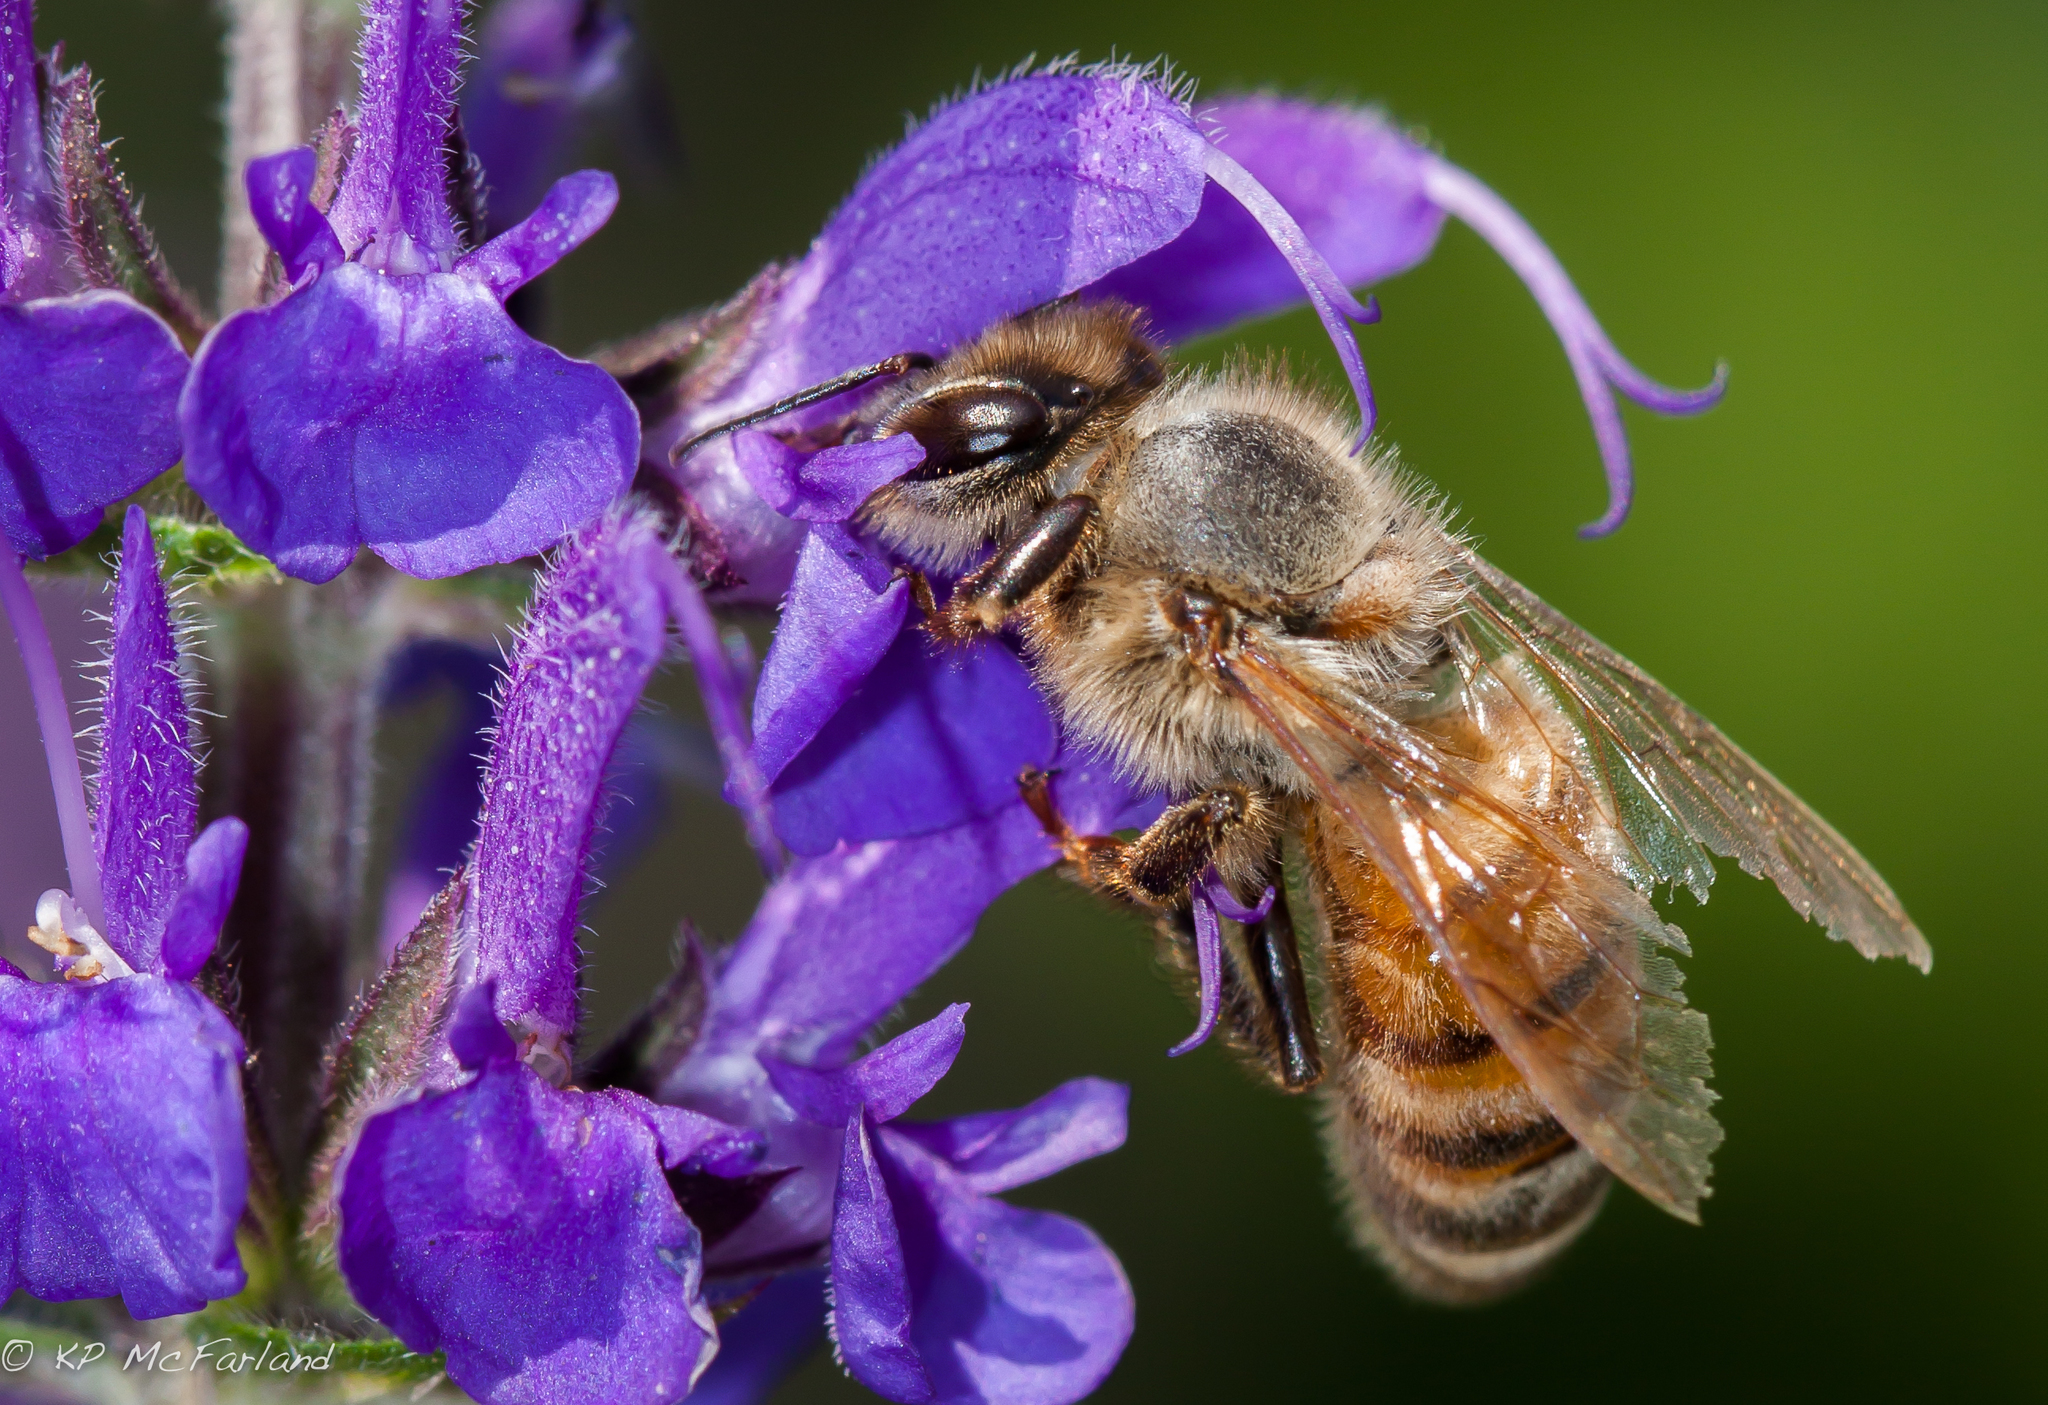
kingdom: Animalia
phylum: Arthropoda
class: Insecta
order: Hymenoptera
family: Apidae
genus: Apis
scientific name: Apis mellifera
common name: Honey bee
